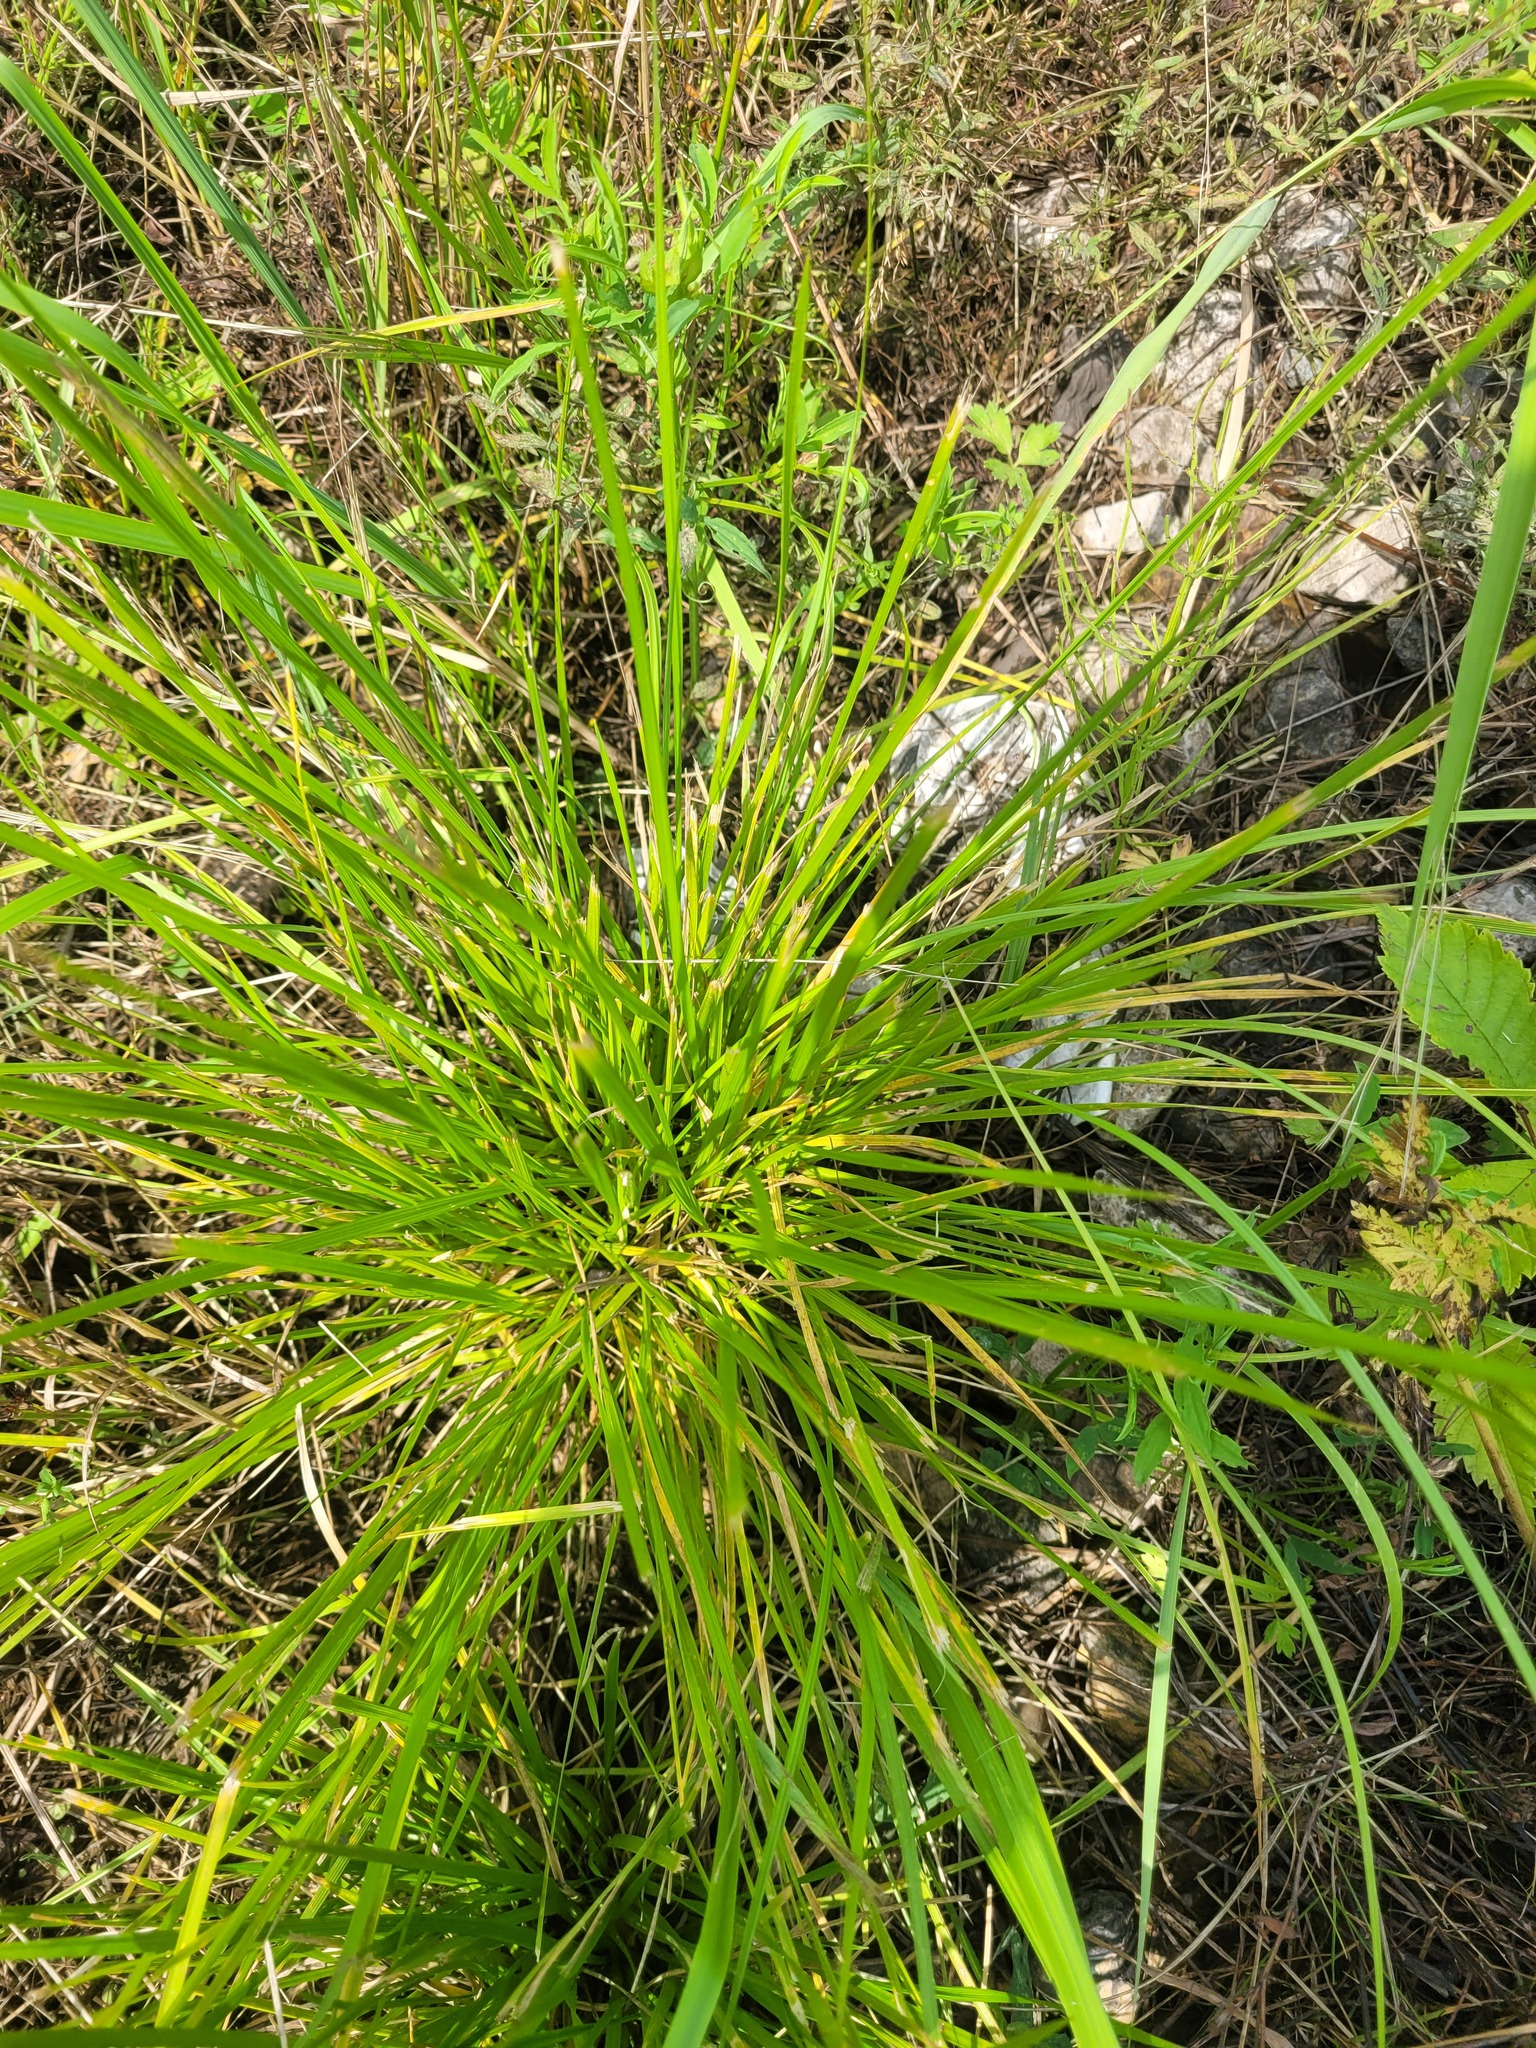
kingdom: Plantae
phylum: Tracheophyta
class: Liliopsida
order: Poales
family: Poaceae
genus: Deschampsia
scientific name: Deschampsia cespitosa
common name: Tufted hair-grass
